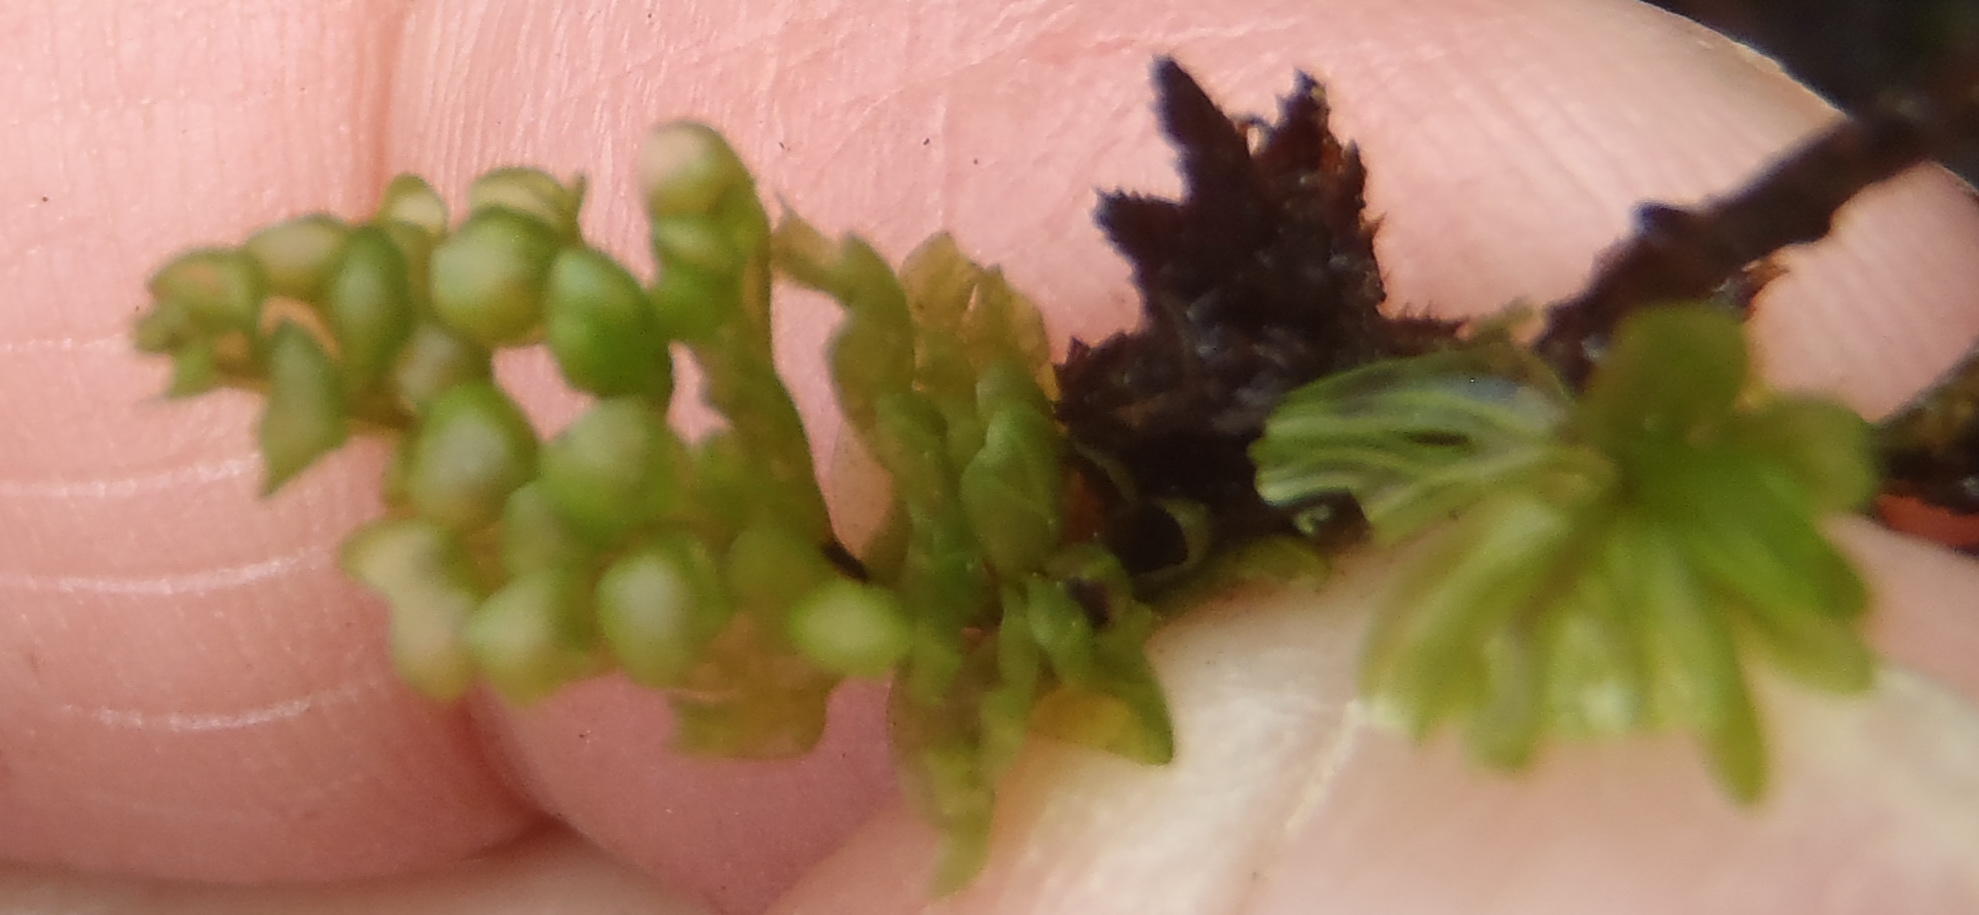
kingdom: Plantae
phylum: Tracheophyta
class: Polypodiopsida
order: Hymenophyllales
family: Hymenophyllaceae
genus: Hymenophyllum
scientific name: Hymenophyllum capense
